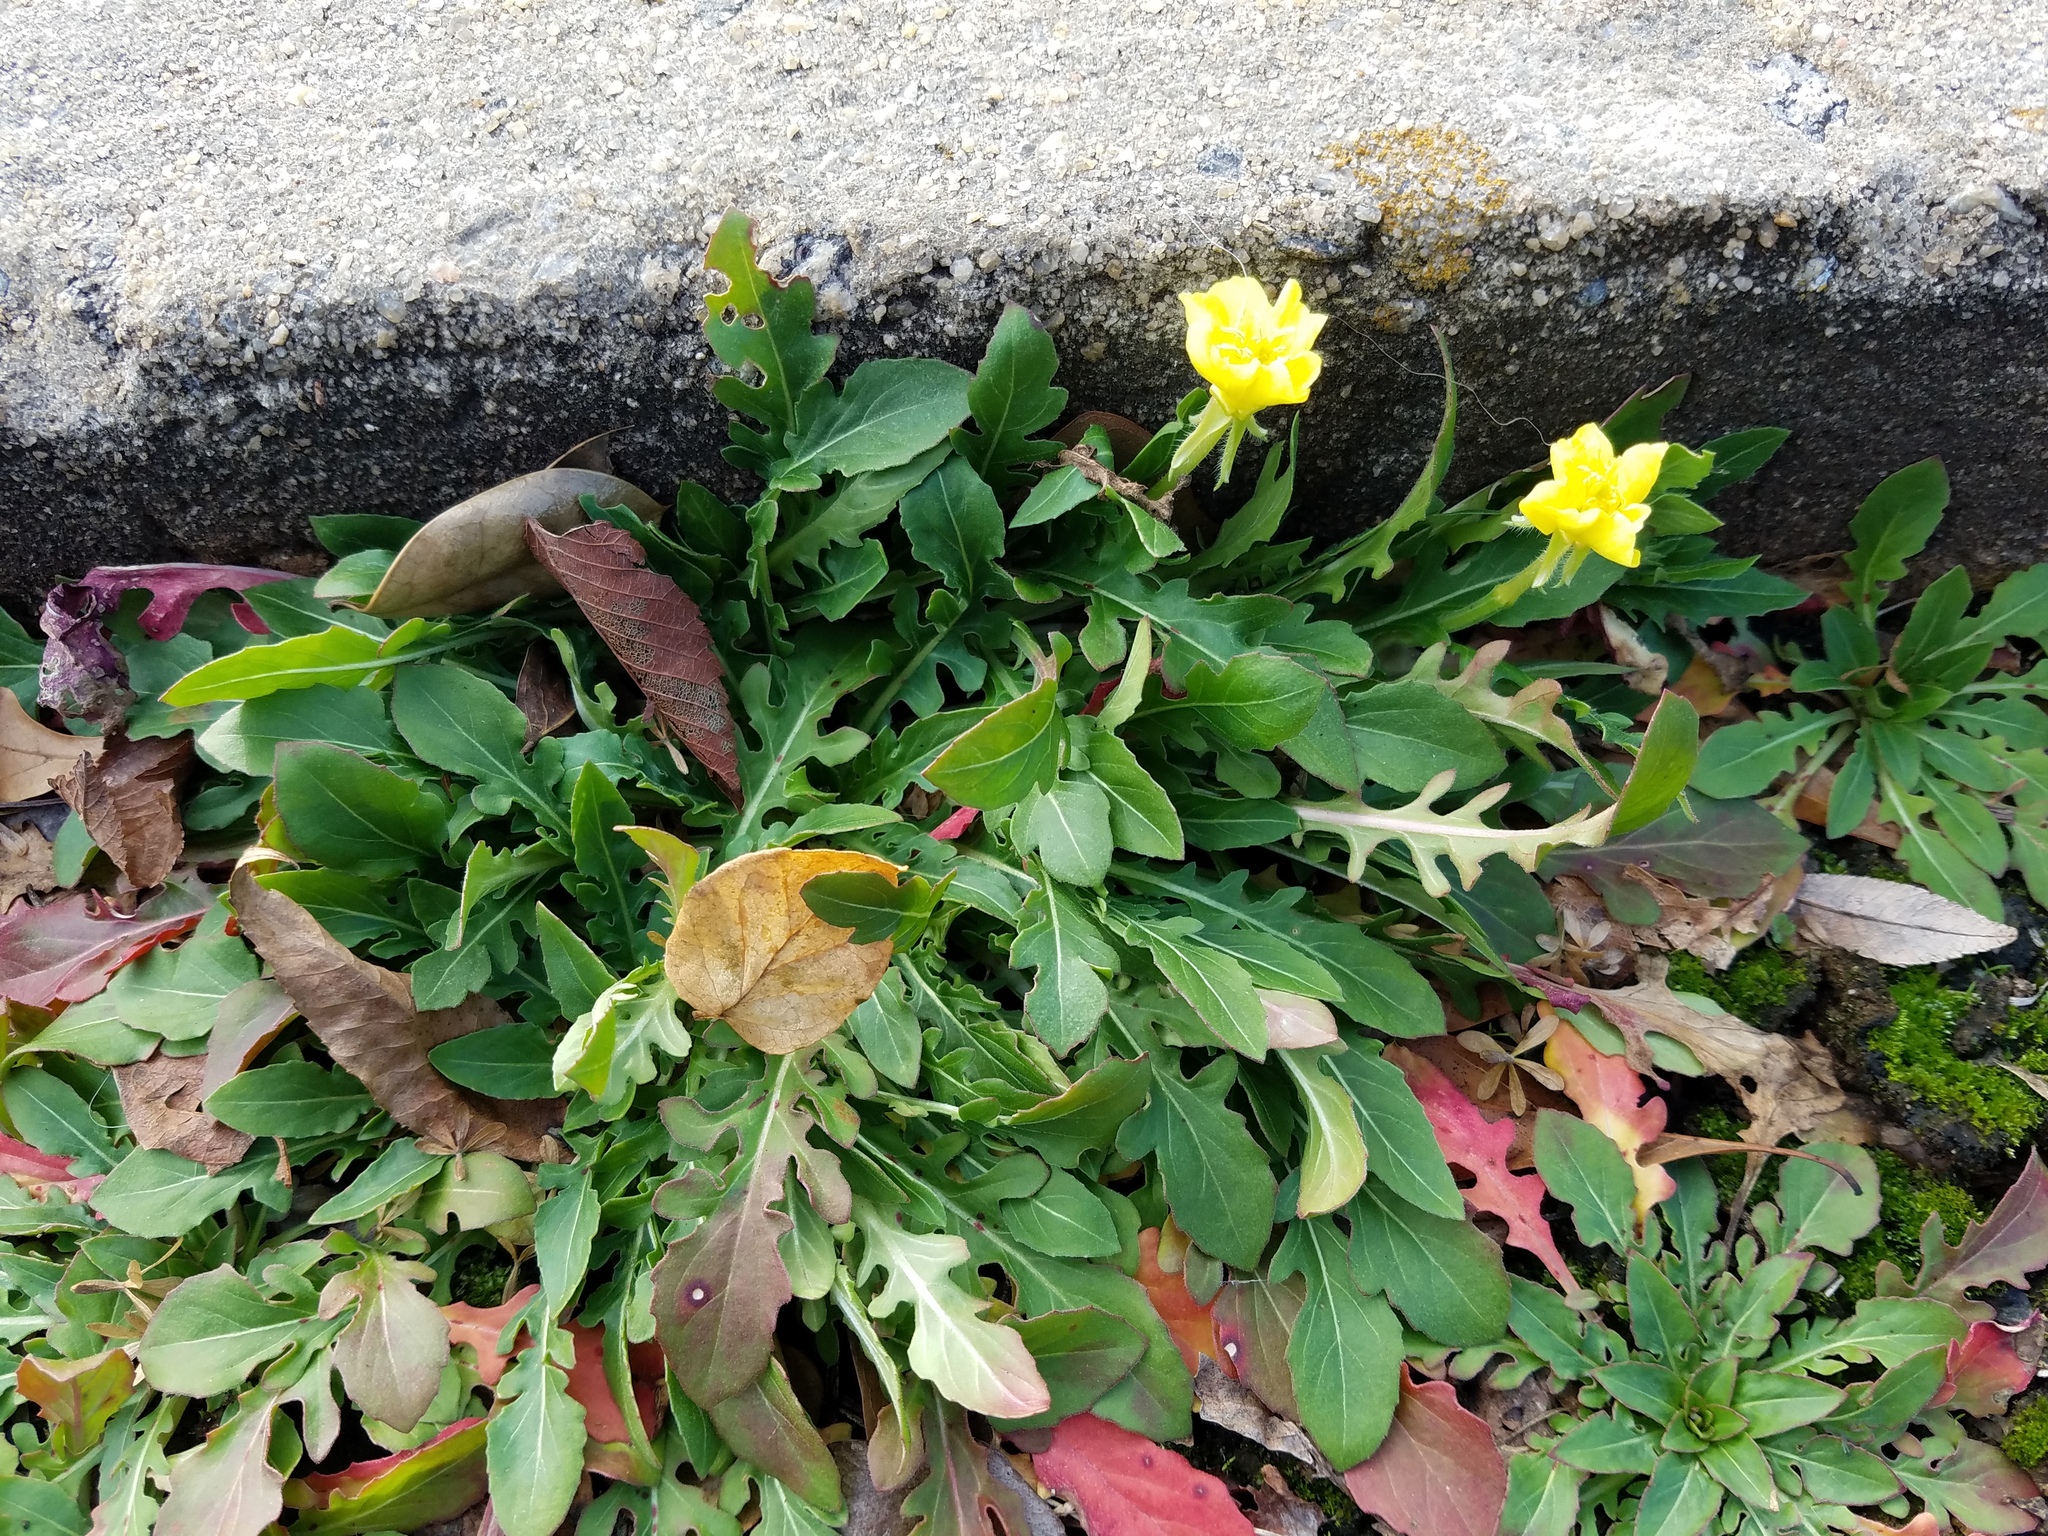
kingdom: Plantae
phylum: Tracheophyta
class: Magnoliopsida
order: Myrtales
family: Onagraceae
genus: Oenothera
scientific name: Oenothera laciniata
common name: Cut-leaved evening-primrose
